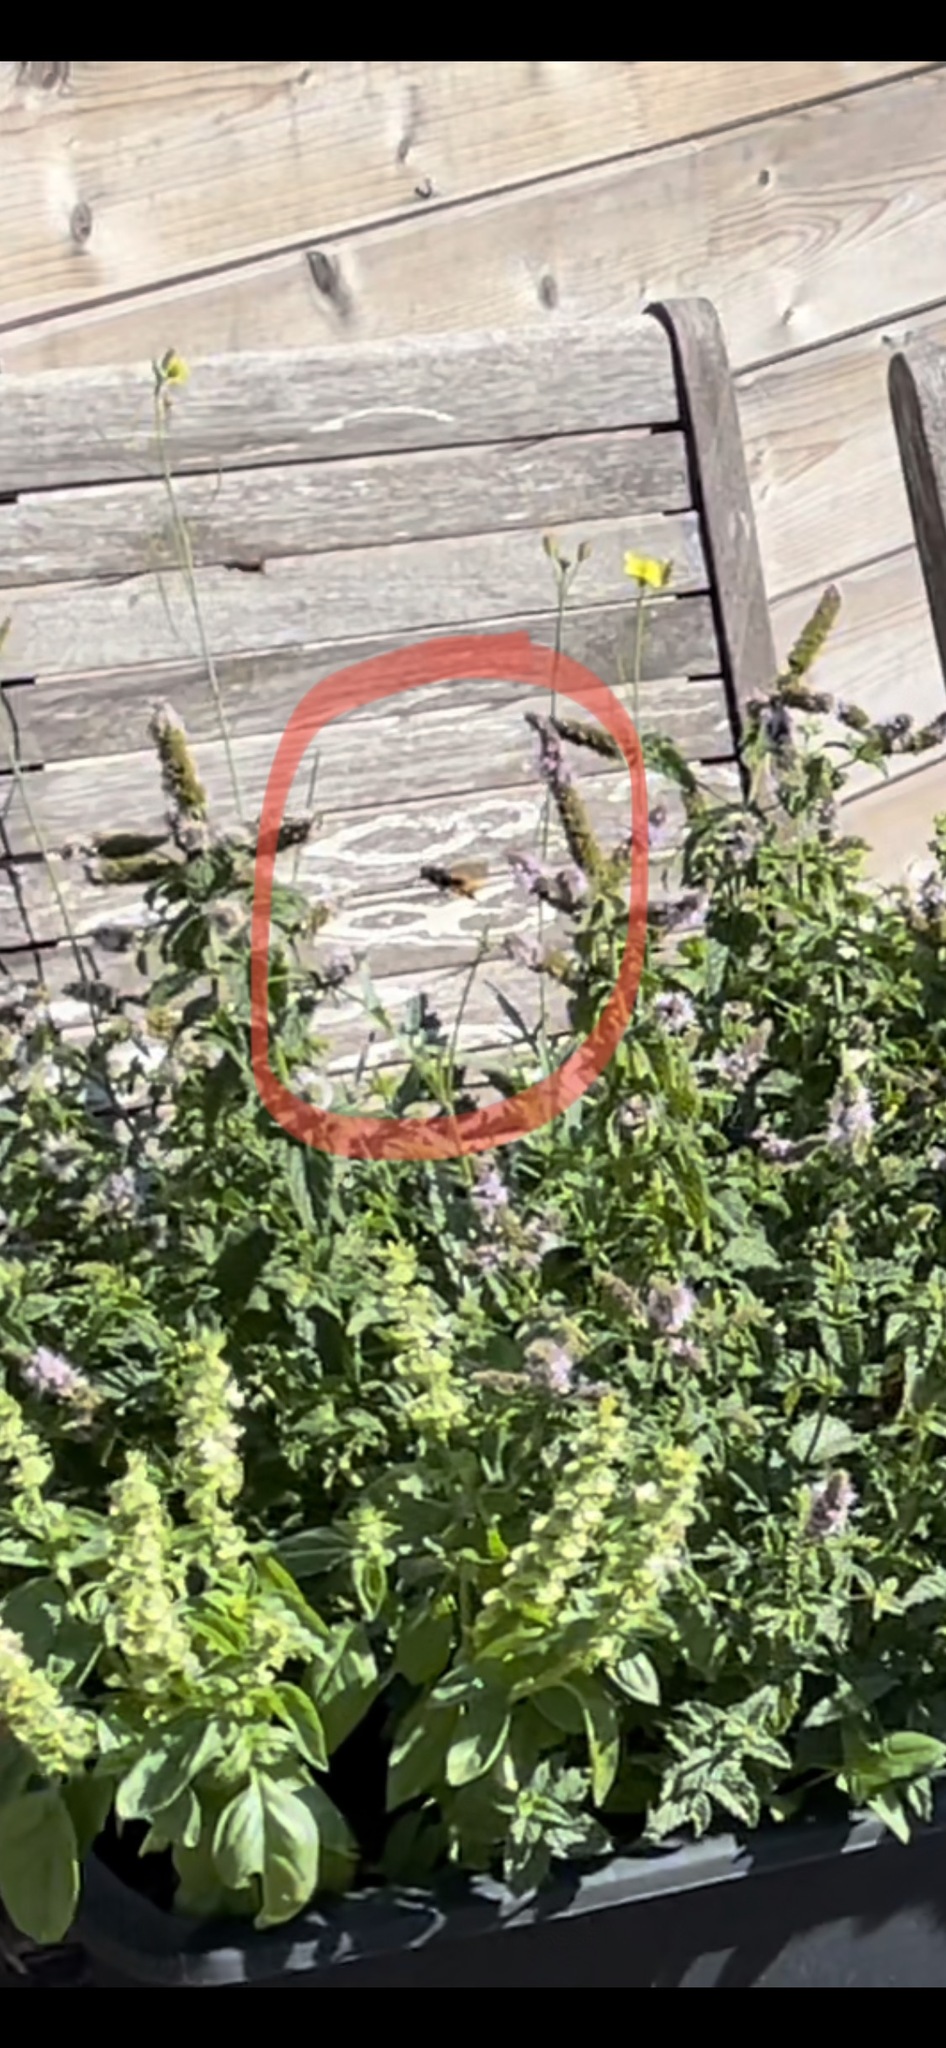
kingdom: Animalia
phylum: Arthropoda
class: Insecta
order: Hymenoptera
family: Vespidae
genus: Vespa
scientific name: Vespa velutina
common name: Asian hornet
